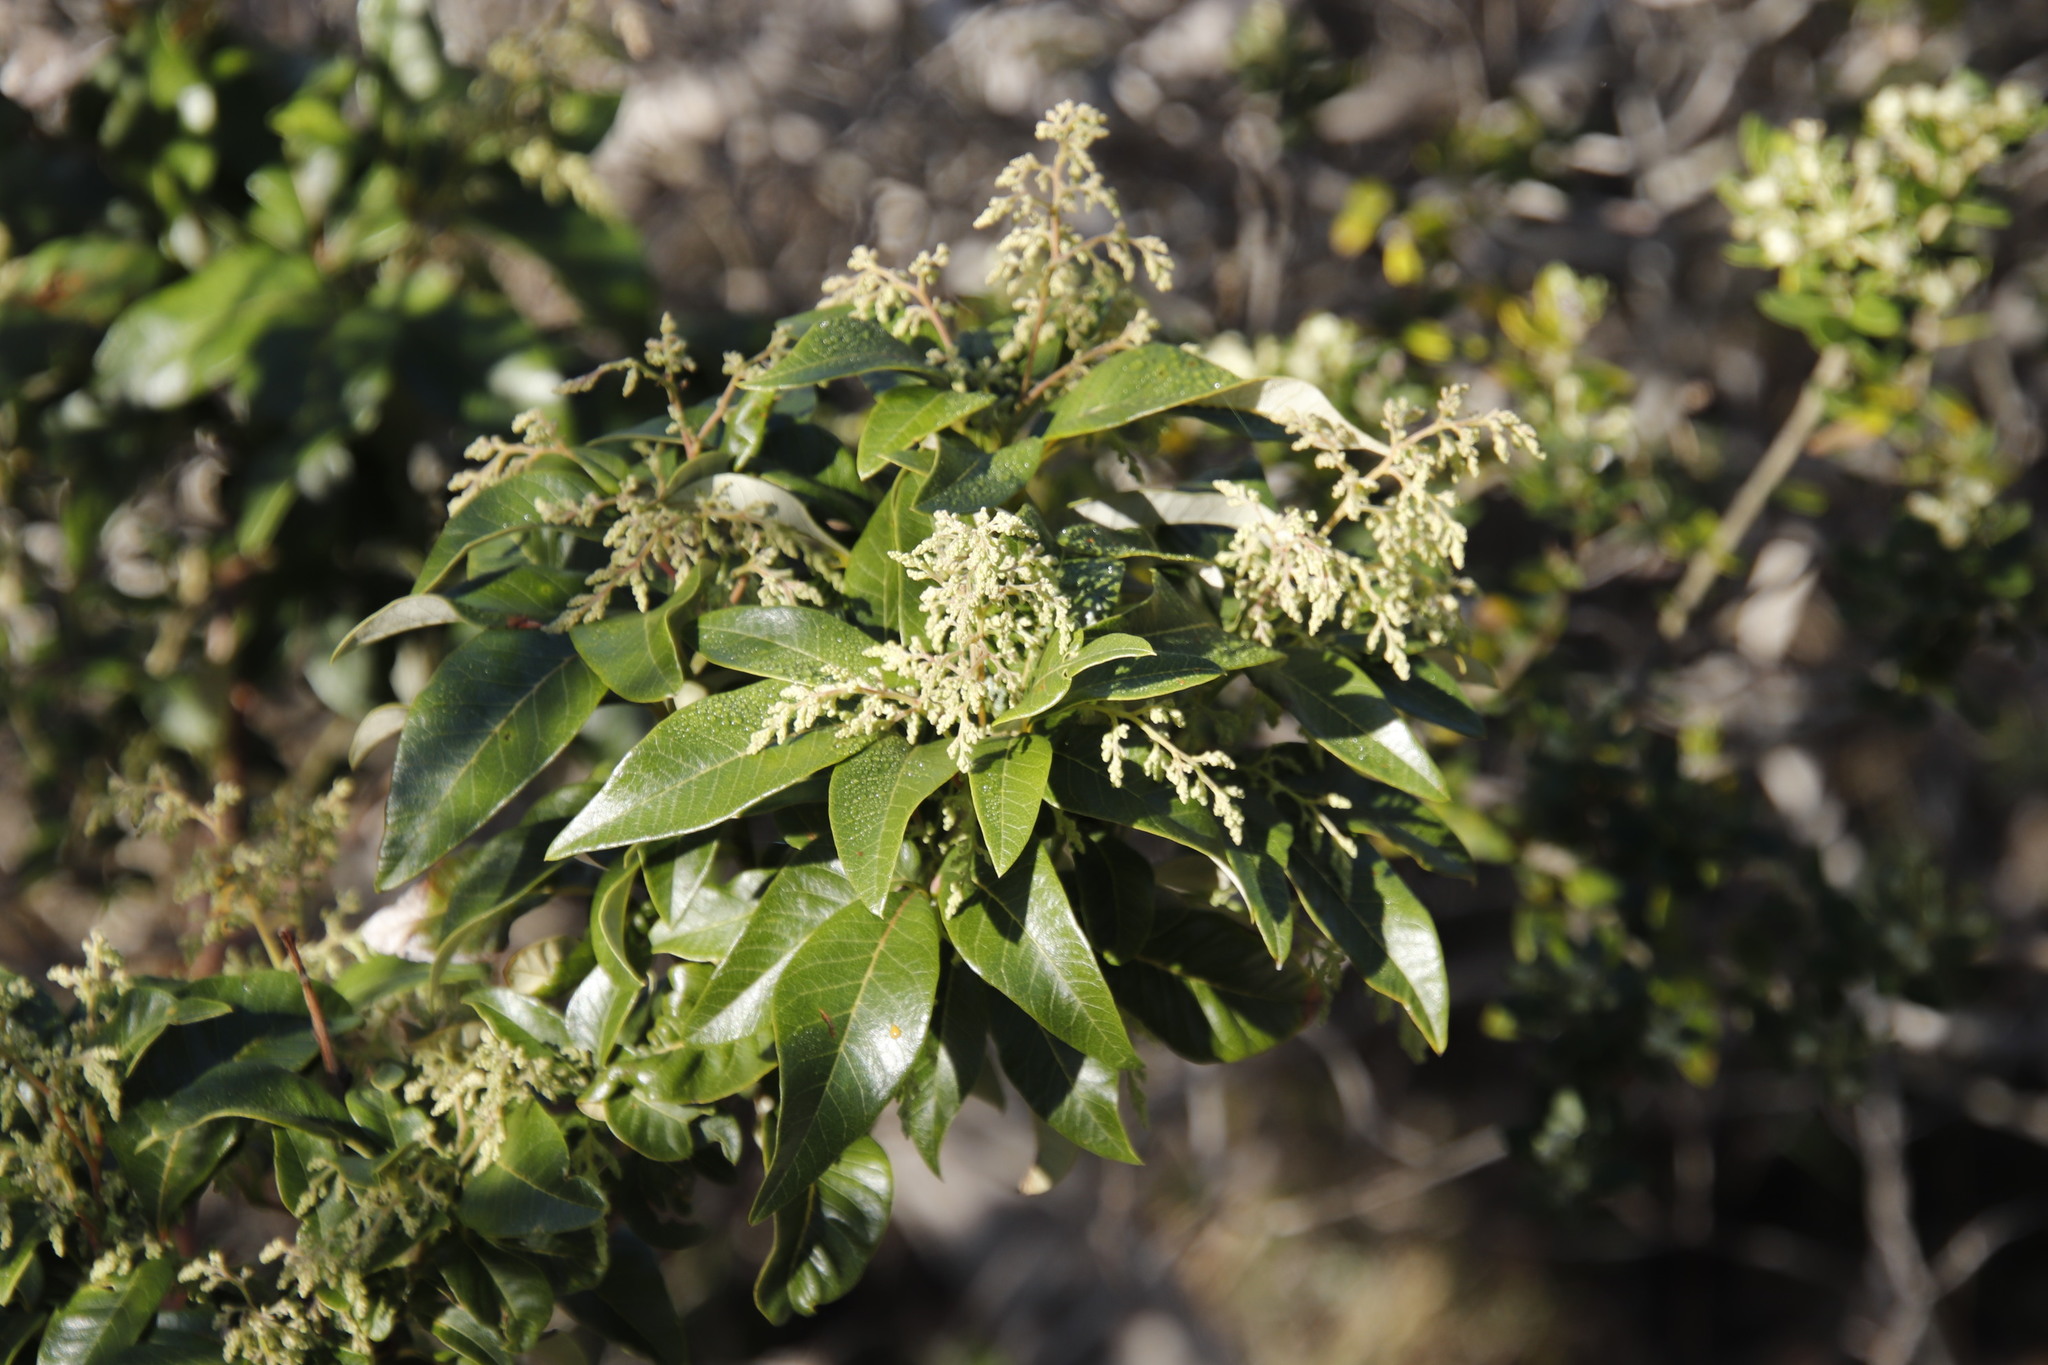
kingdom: Plantae
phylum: Tracheophyta
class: Magnoliopsida
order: Sapindales
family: Anacardiaceae
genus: Searsia
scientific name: Searsia tomentosa
